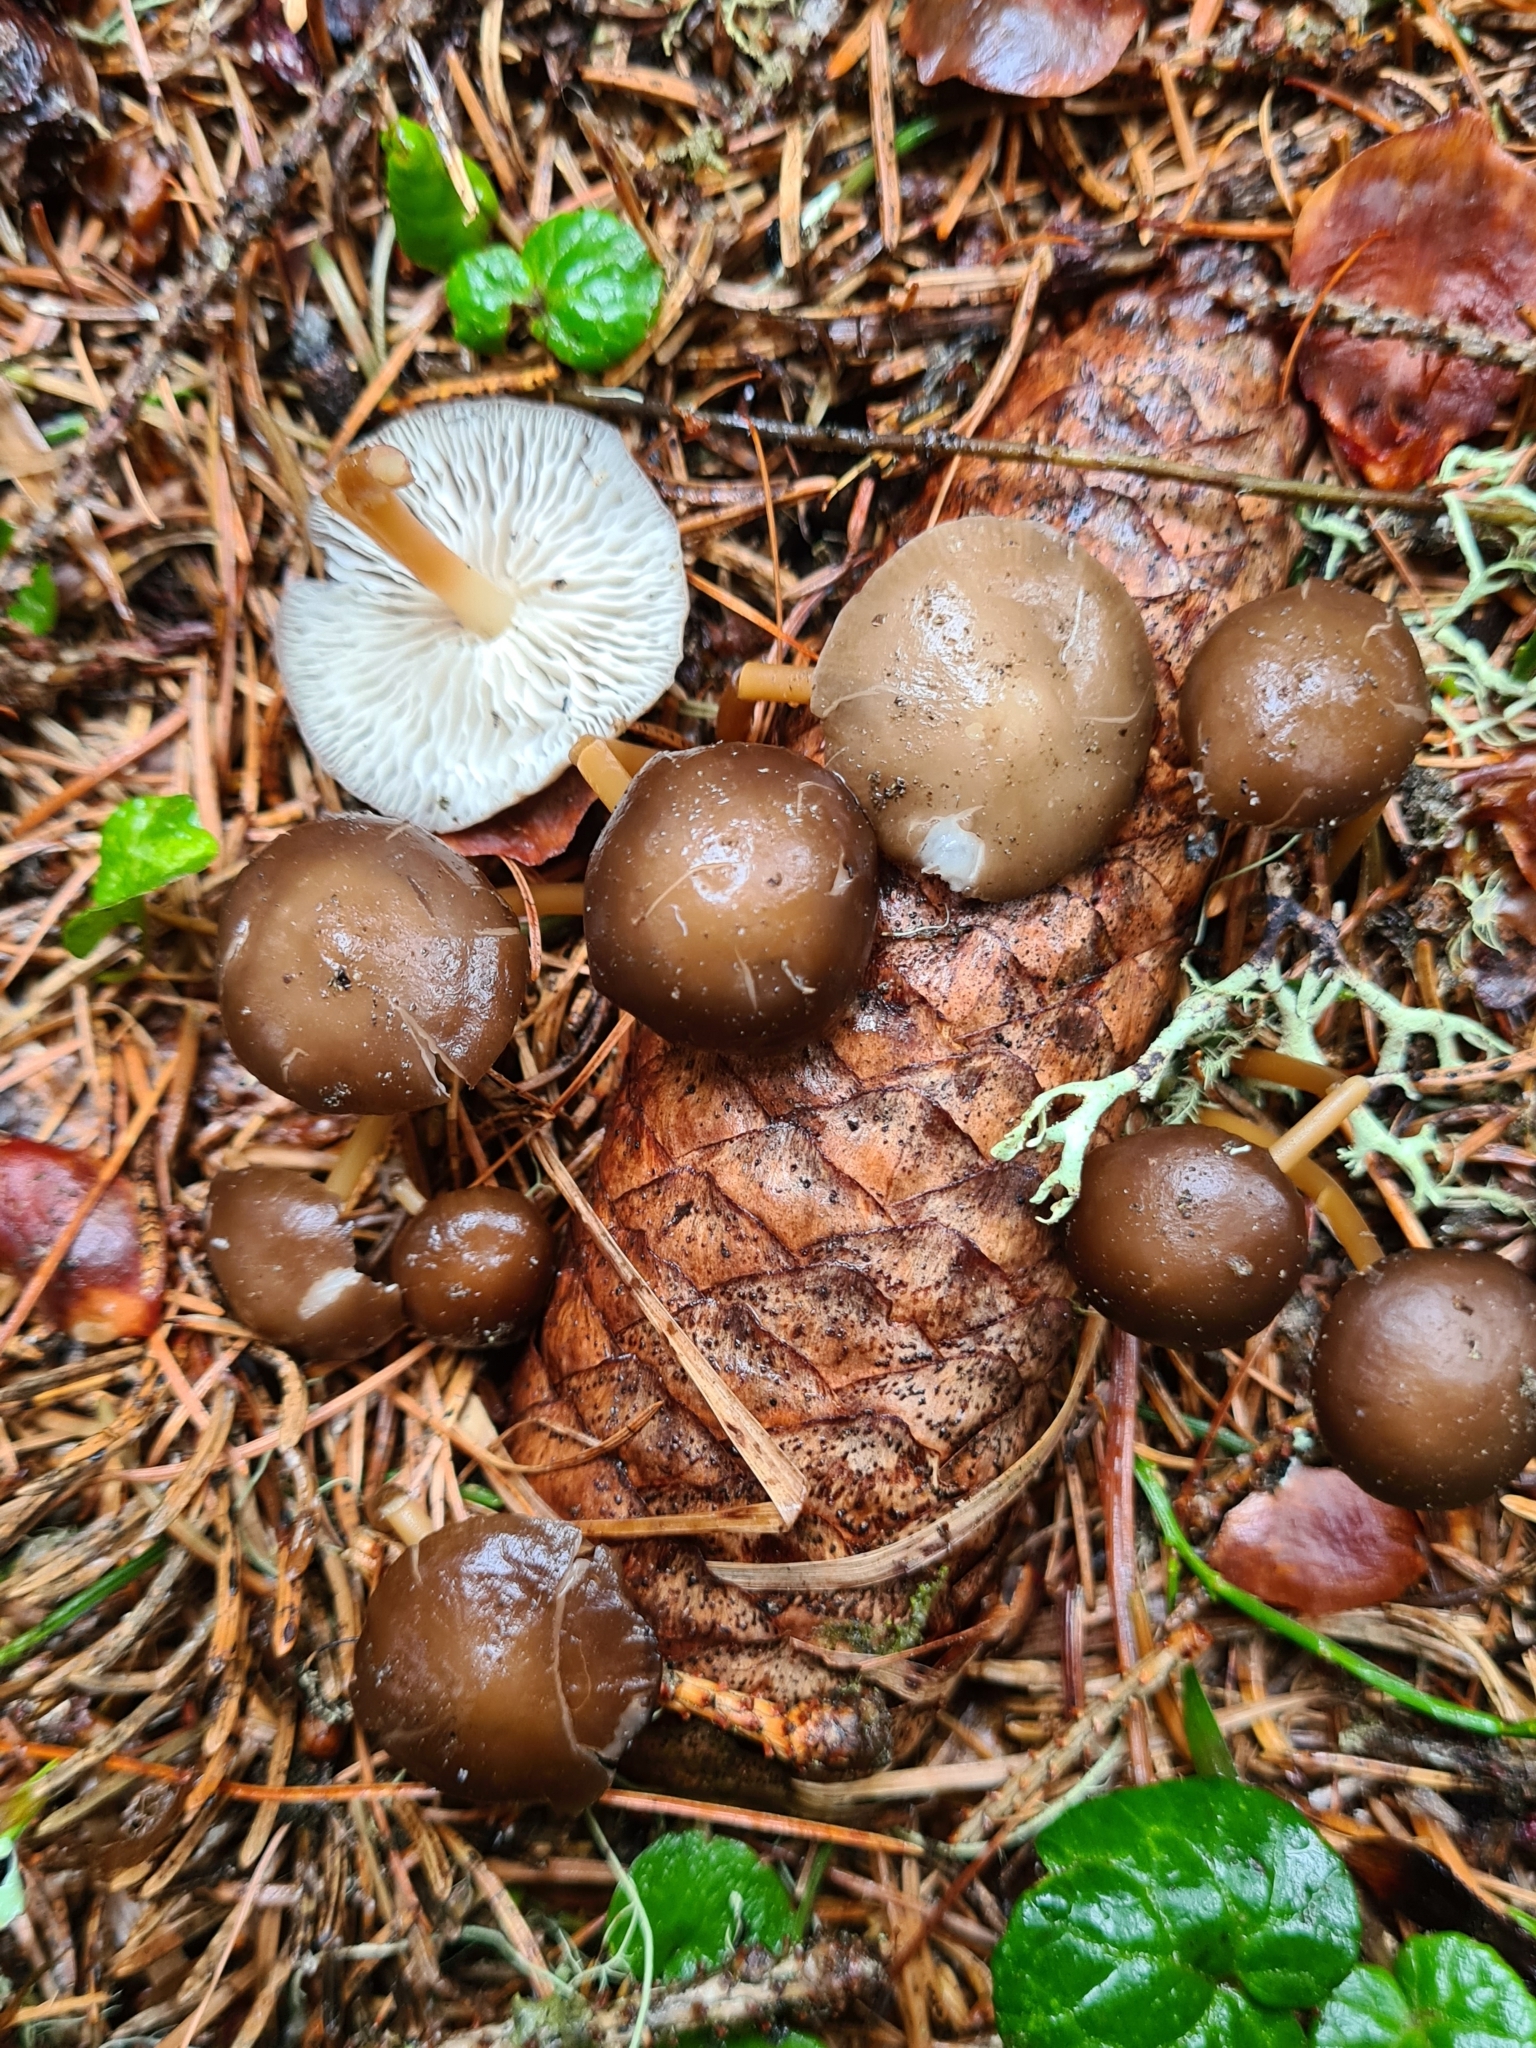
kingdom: Fungi
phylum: Basidiomycota
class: Agaricomycetes
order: Agaricales
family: Physalacriaceae
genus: Strobilurus
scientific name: Strobilurus esculentus
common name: Sprucecone cap
